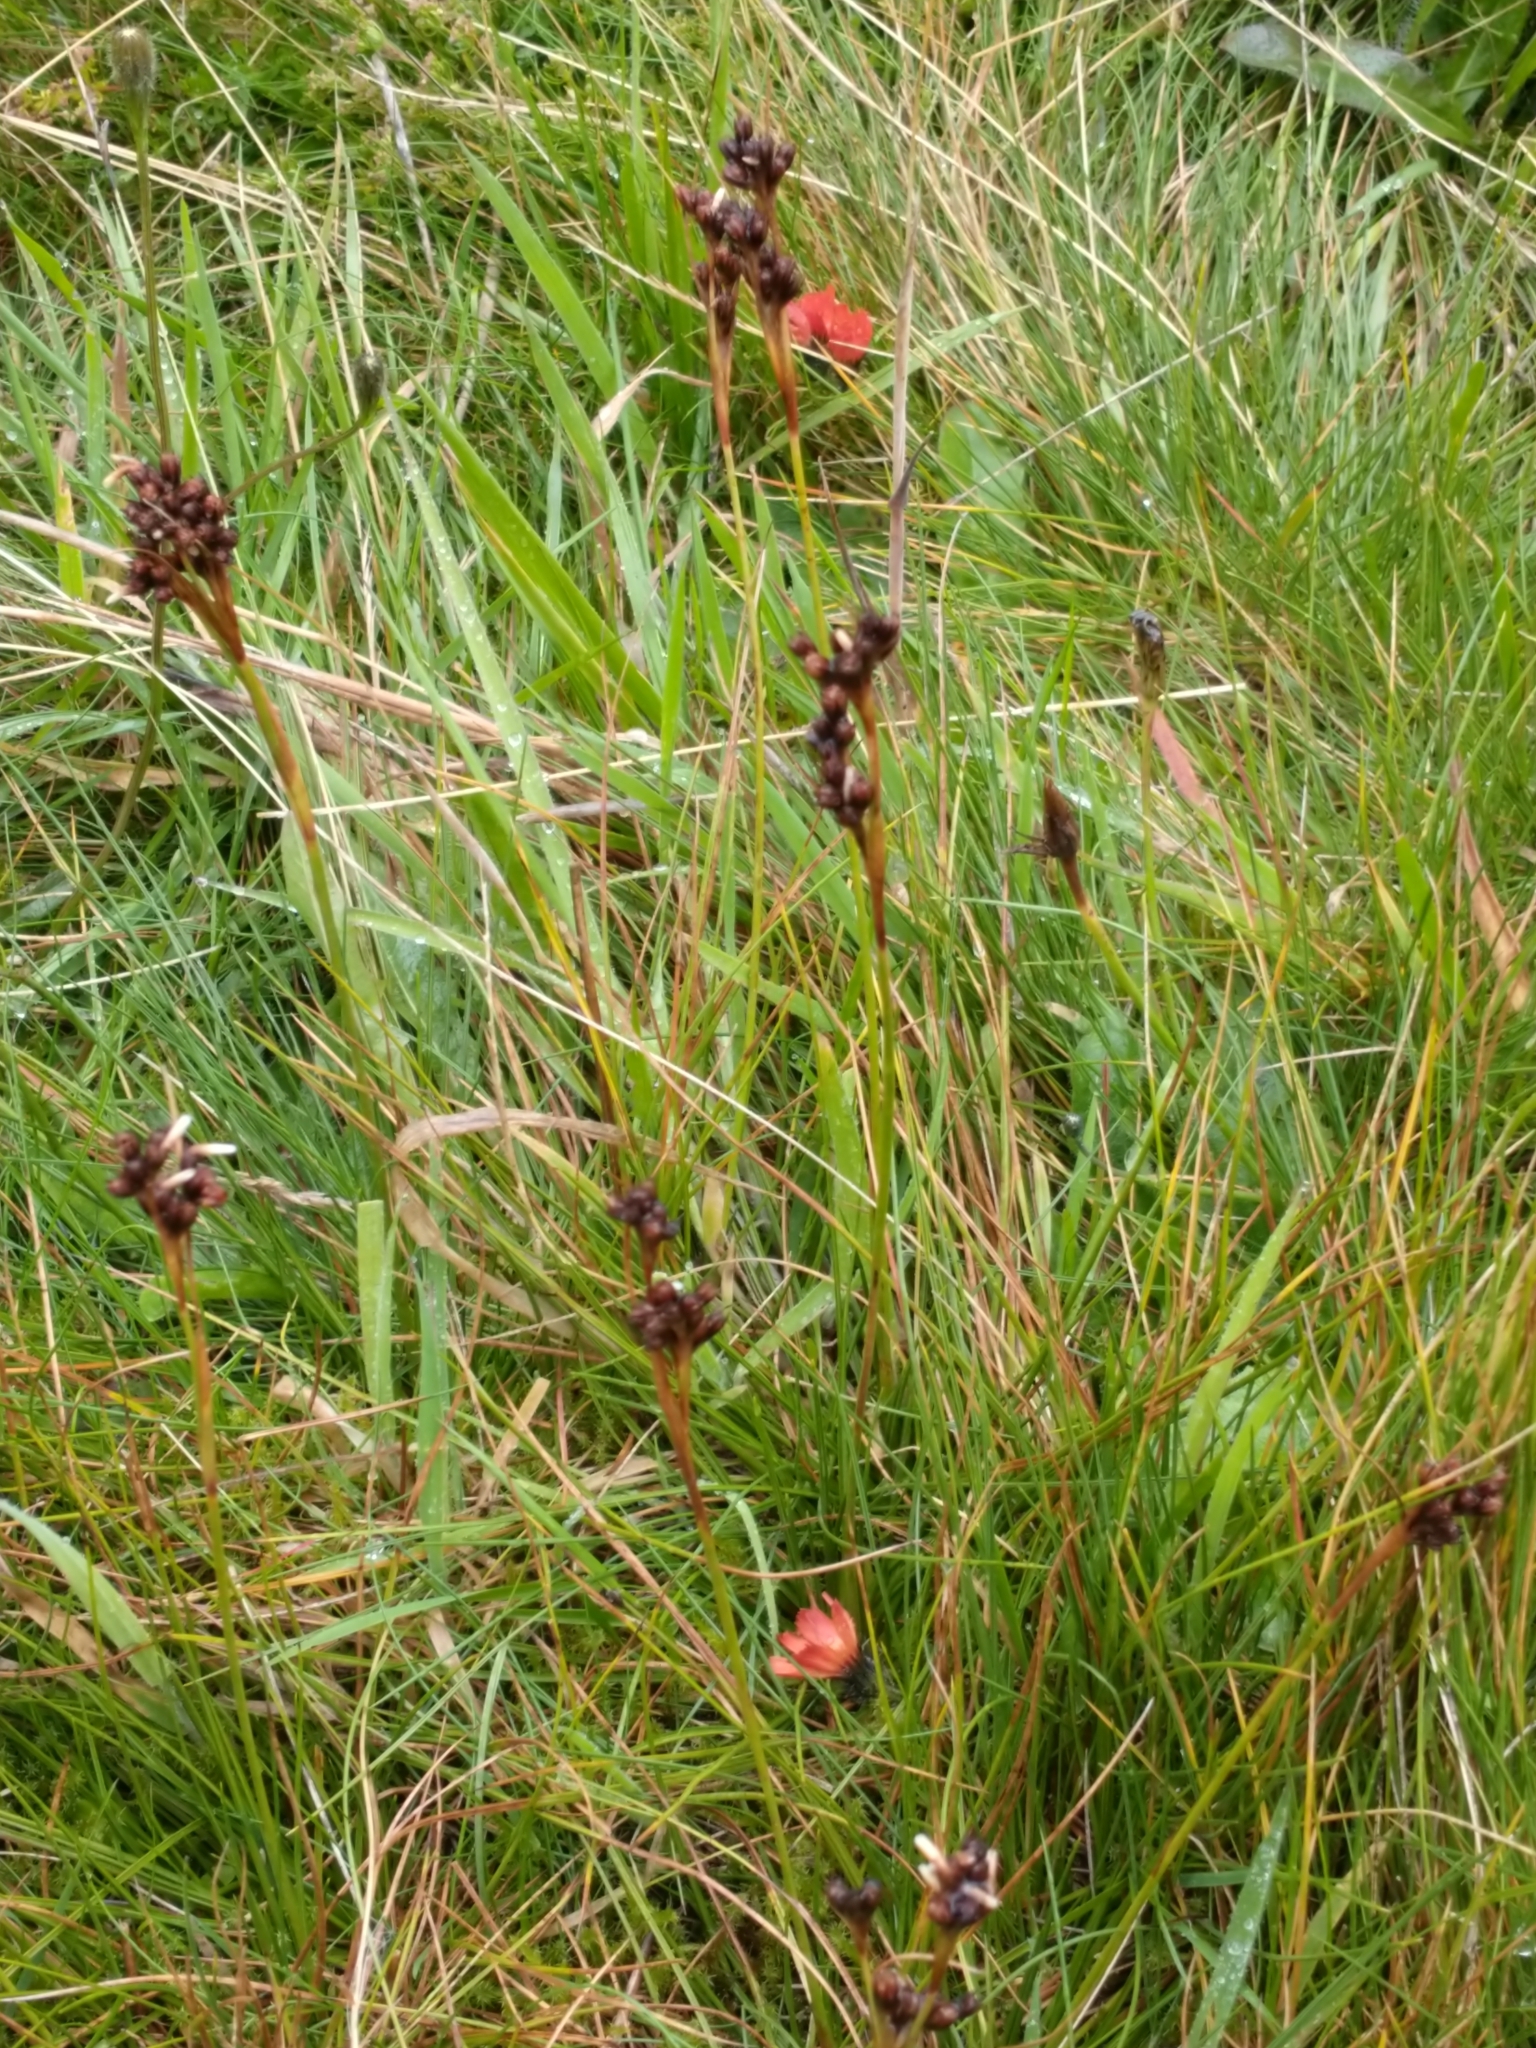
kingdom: Plantae
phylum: Tracheophyta
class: Liliopsida
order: Poales
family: Juncaceae
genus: Juncus
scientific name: Juncus squarrosus
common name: Heath rush
